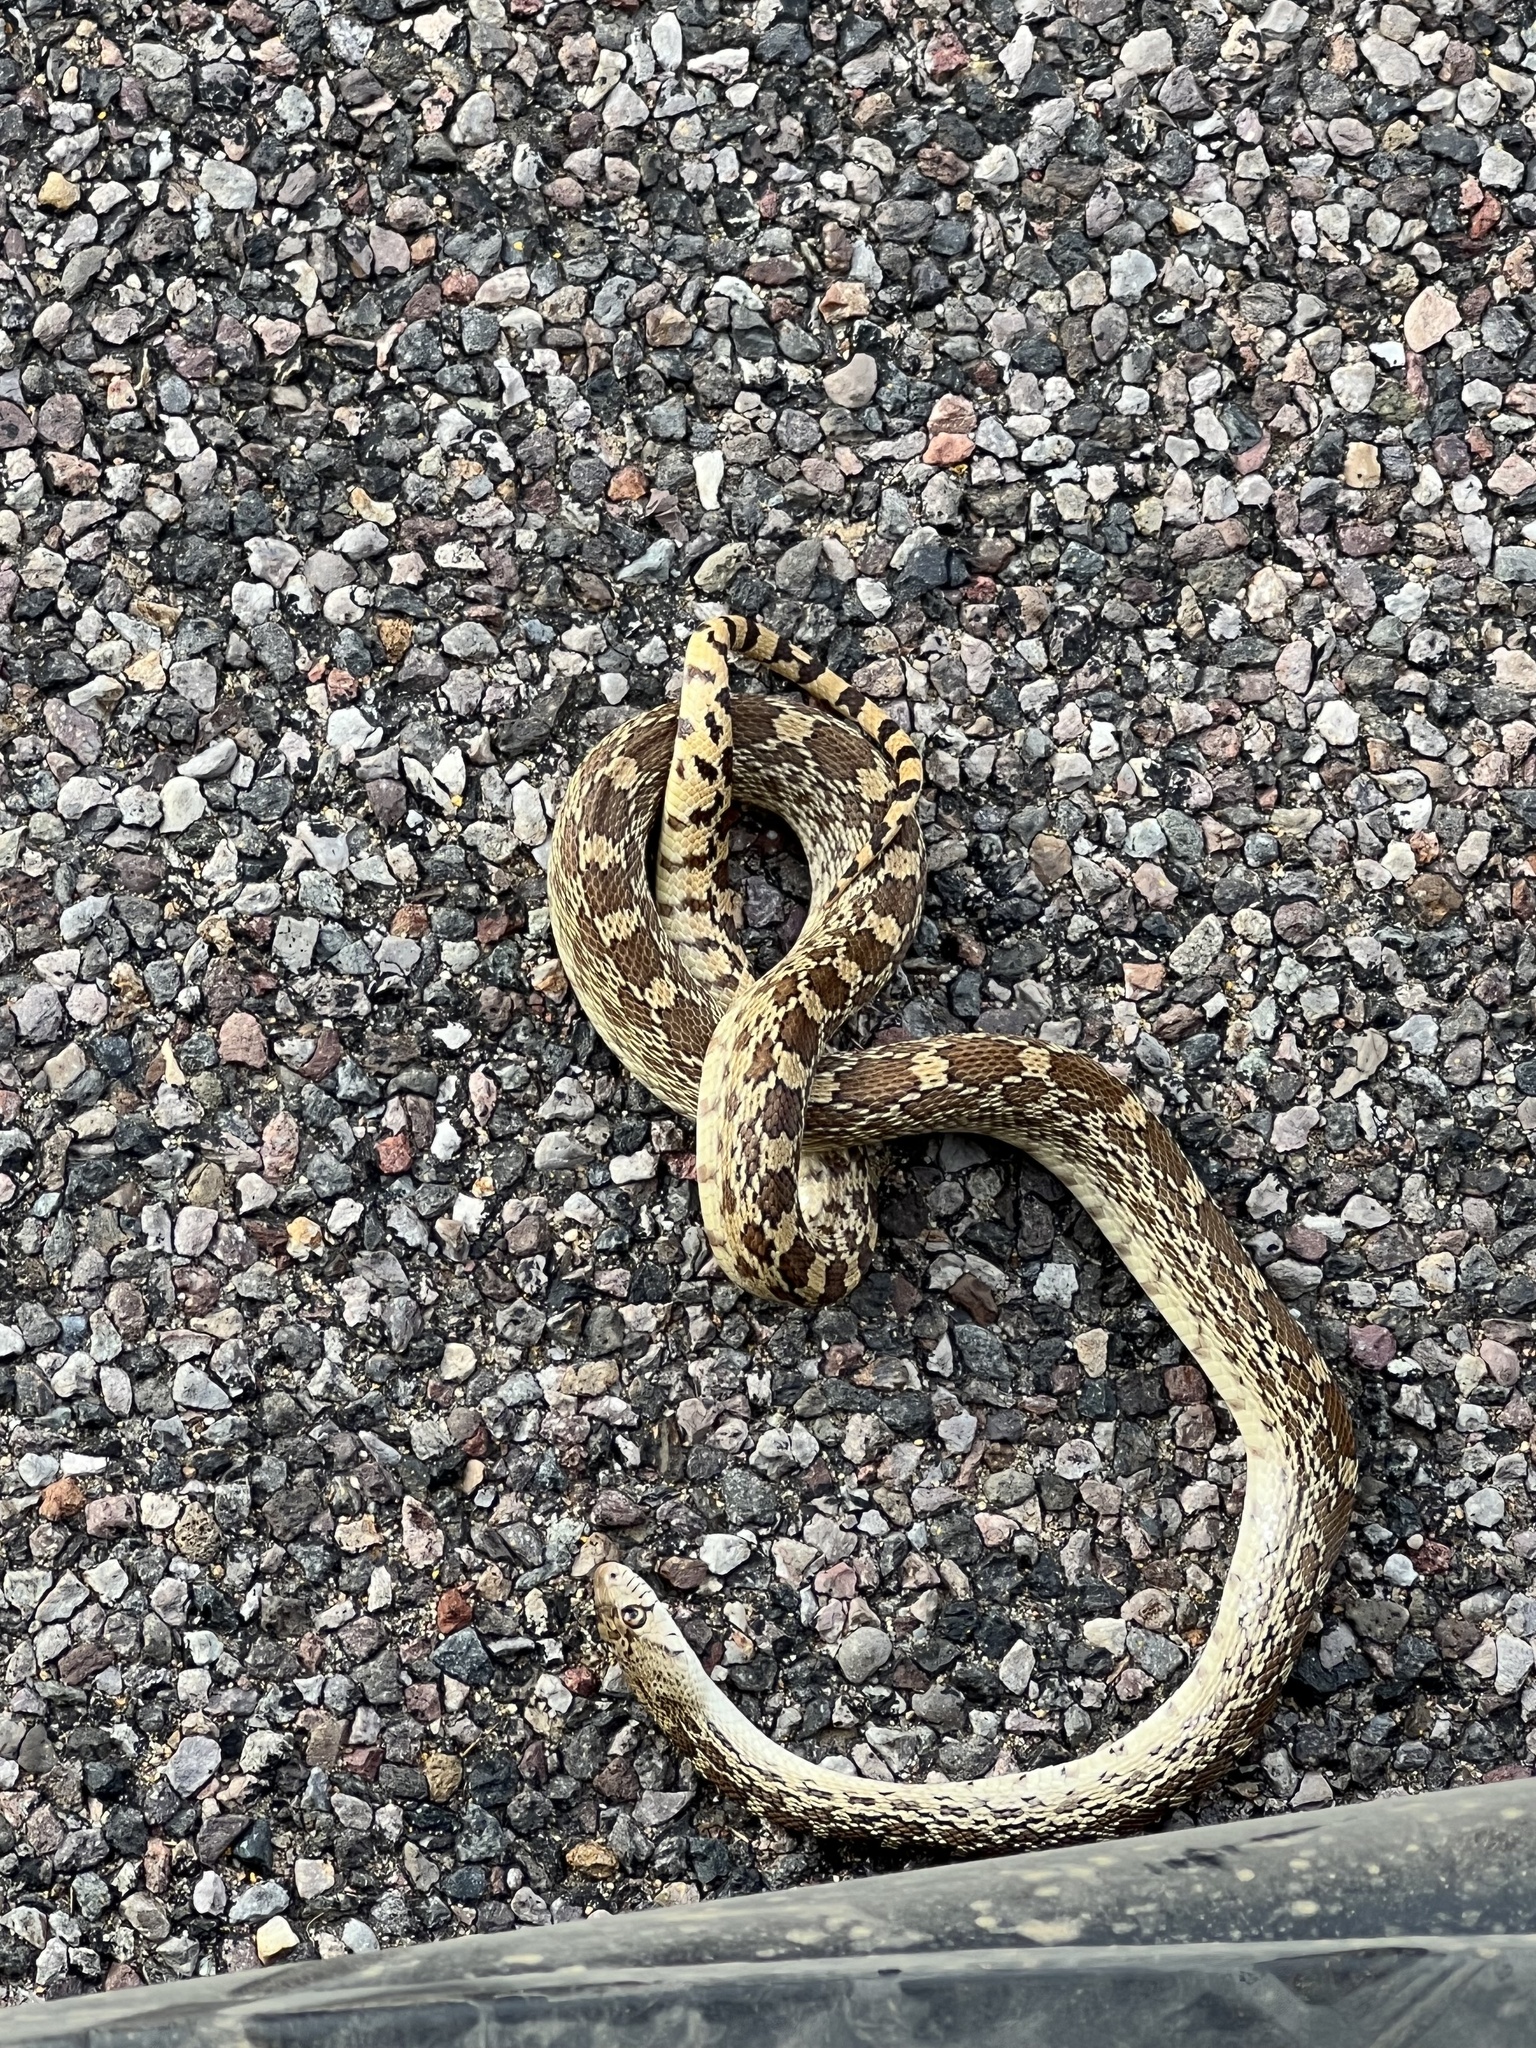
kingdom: Animalia
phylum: Chordata
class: Squamata
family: Colubridae
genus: Pituophis
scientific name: Pituophis catenifer
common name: Gopher snake
